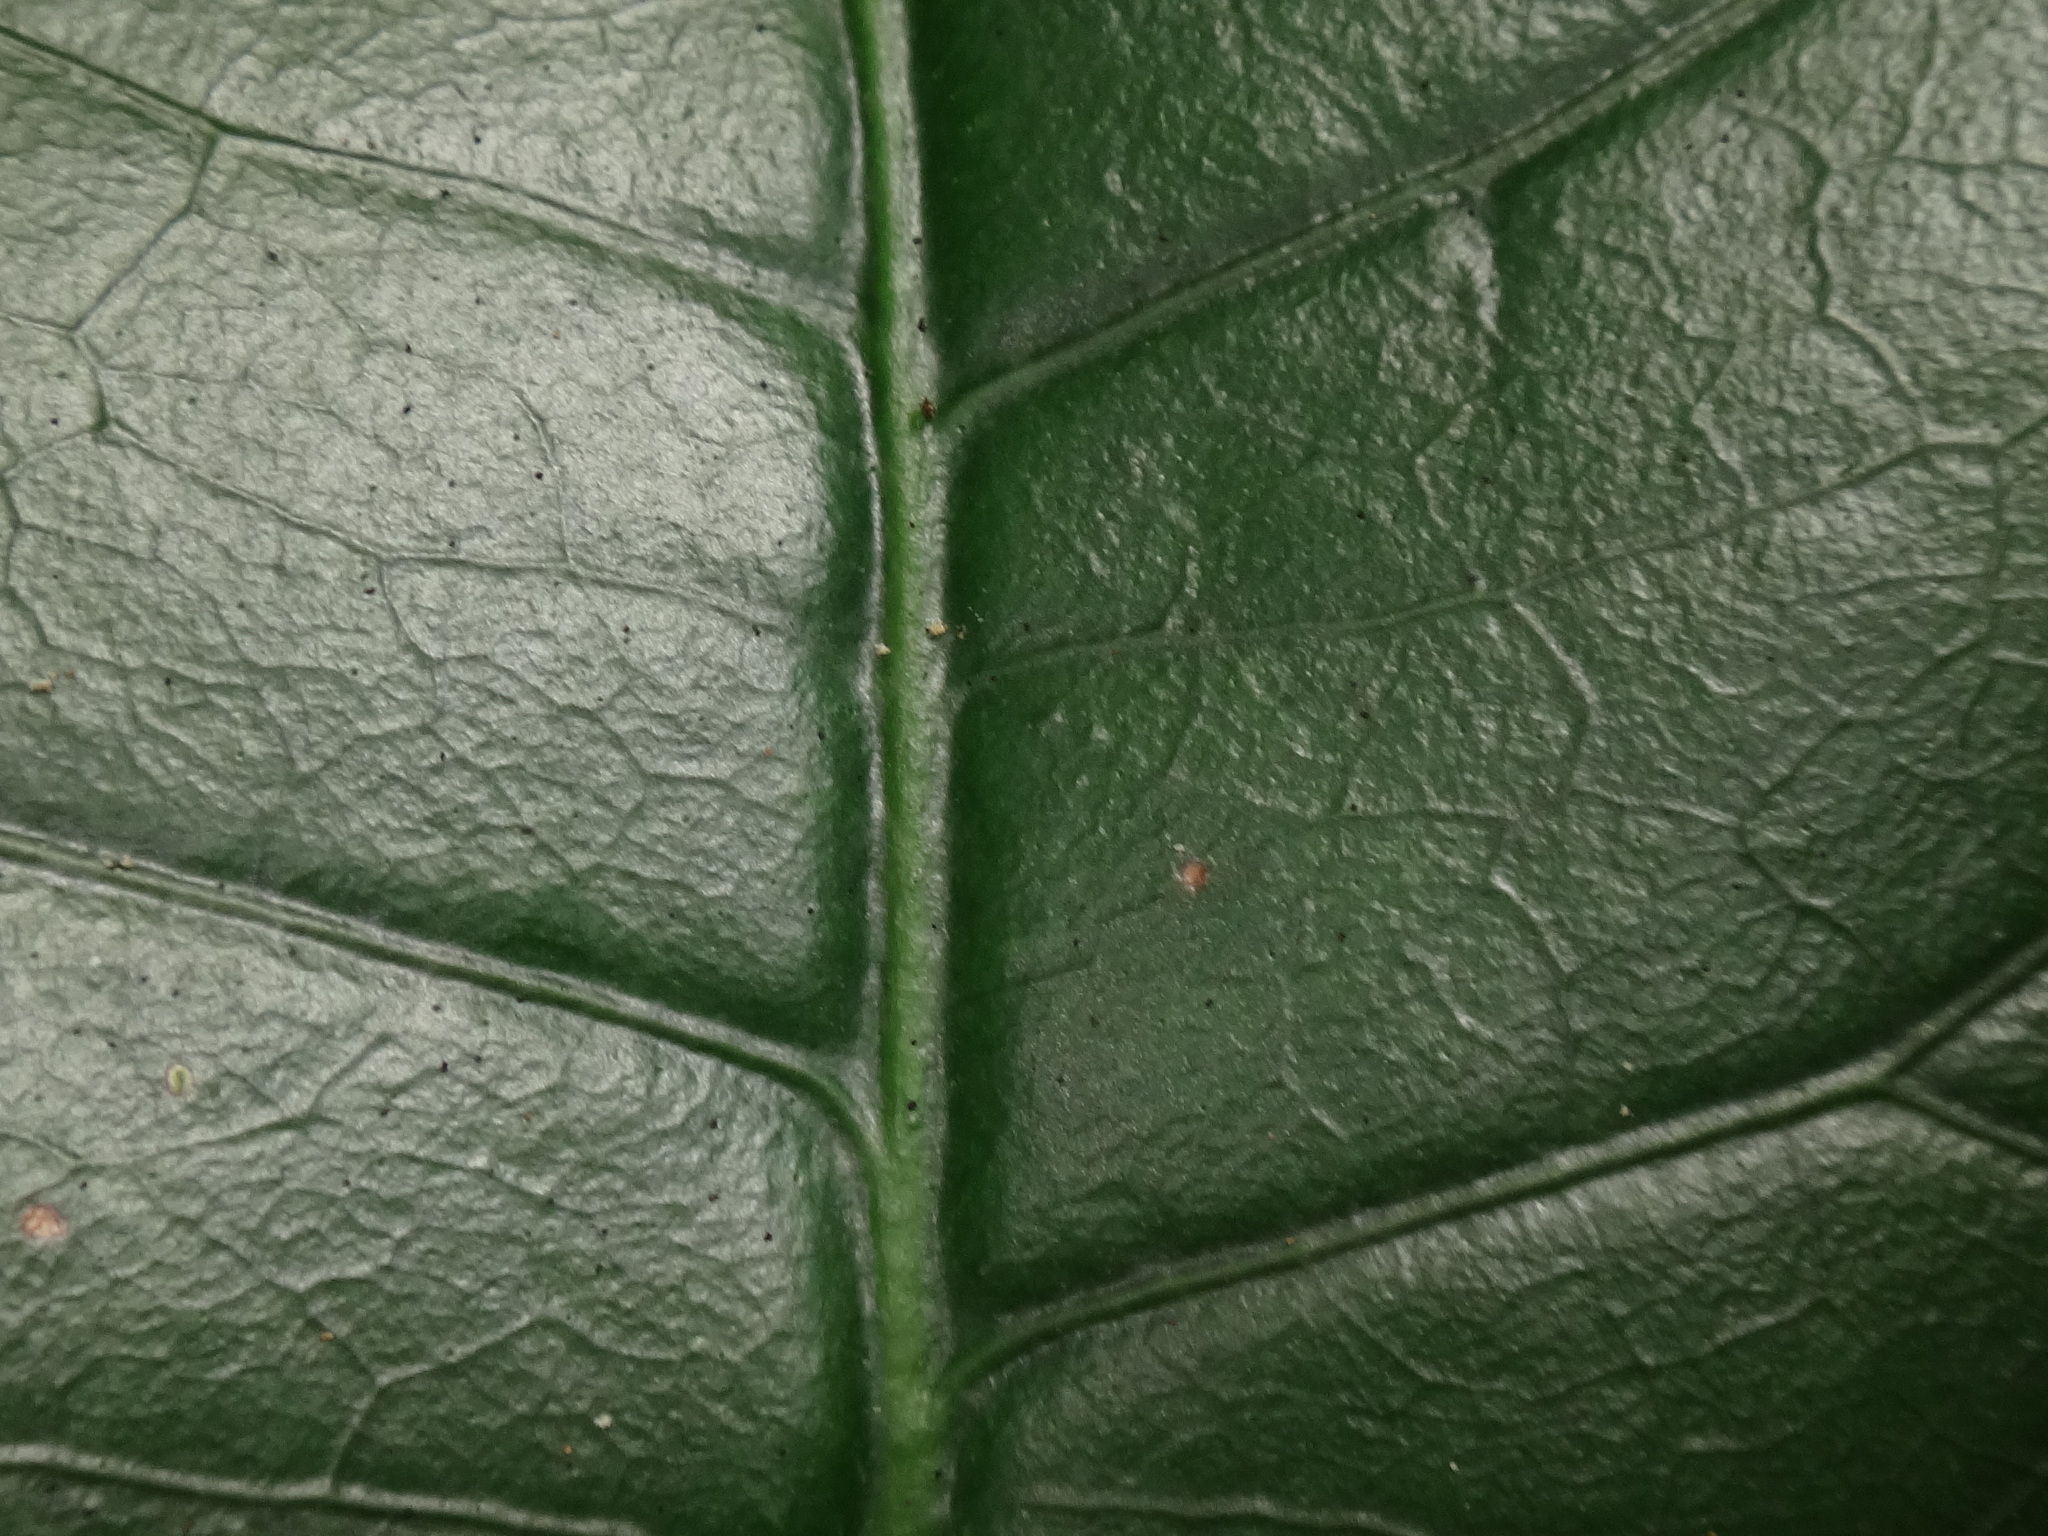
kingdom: Plantae
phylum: Tracheophyta
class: Magnoliopsida
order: Lamiales
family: Oleaceae
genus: Picconia
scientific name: Picconia excelsa
